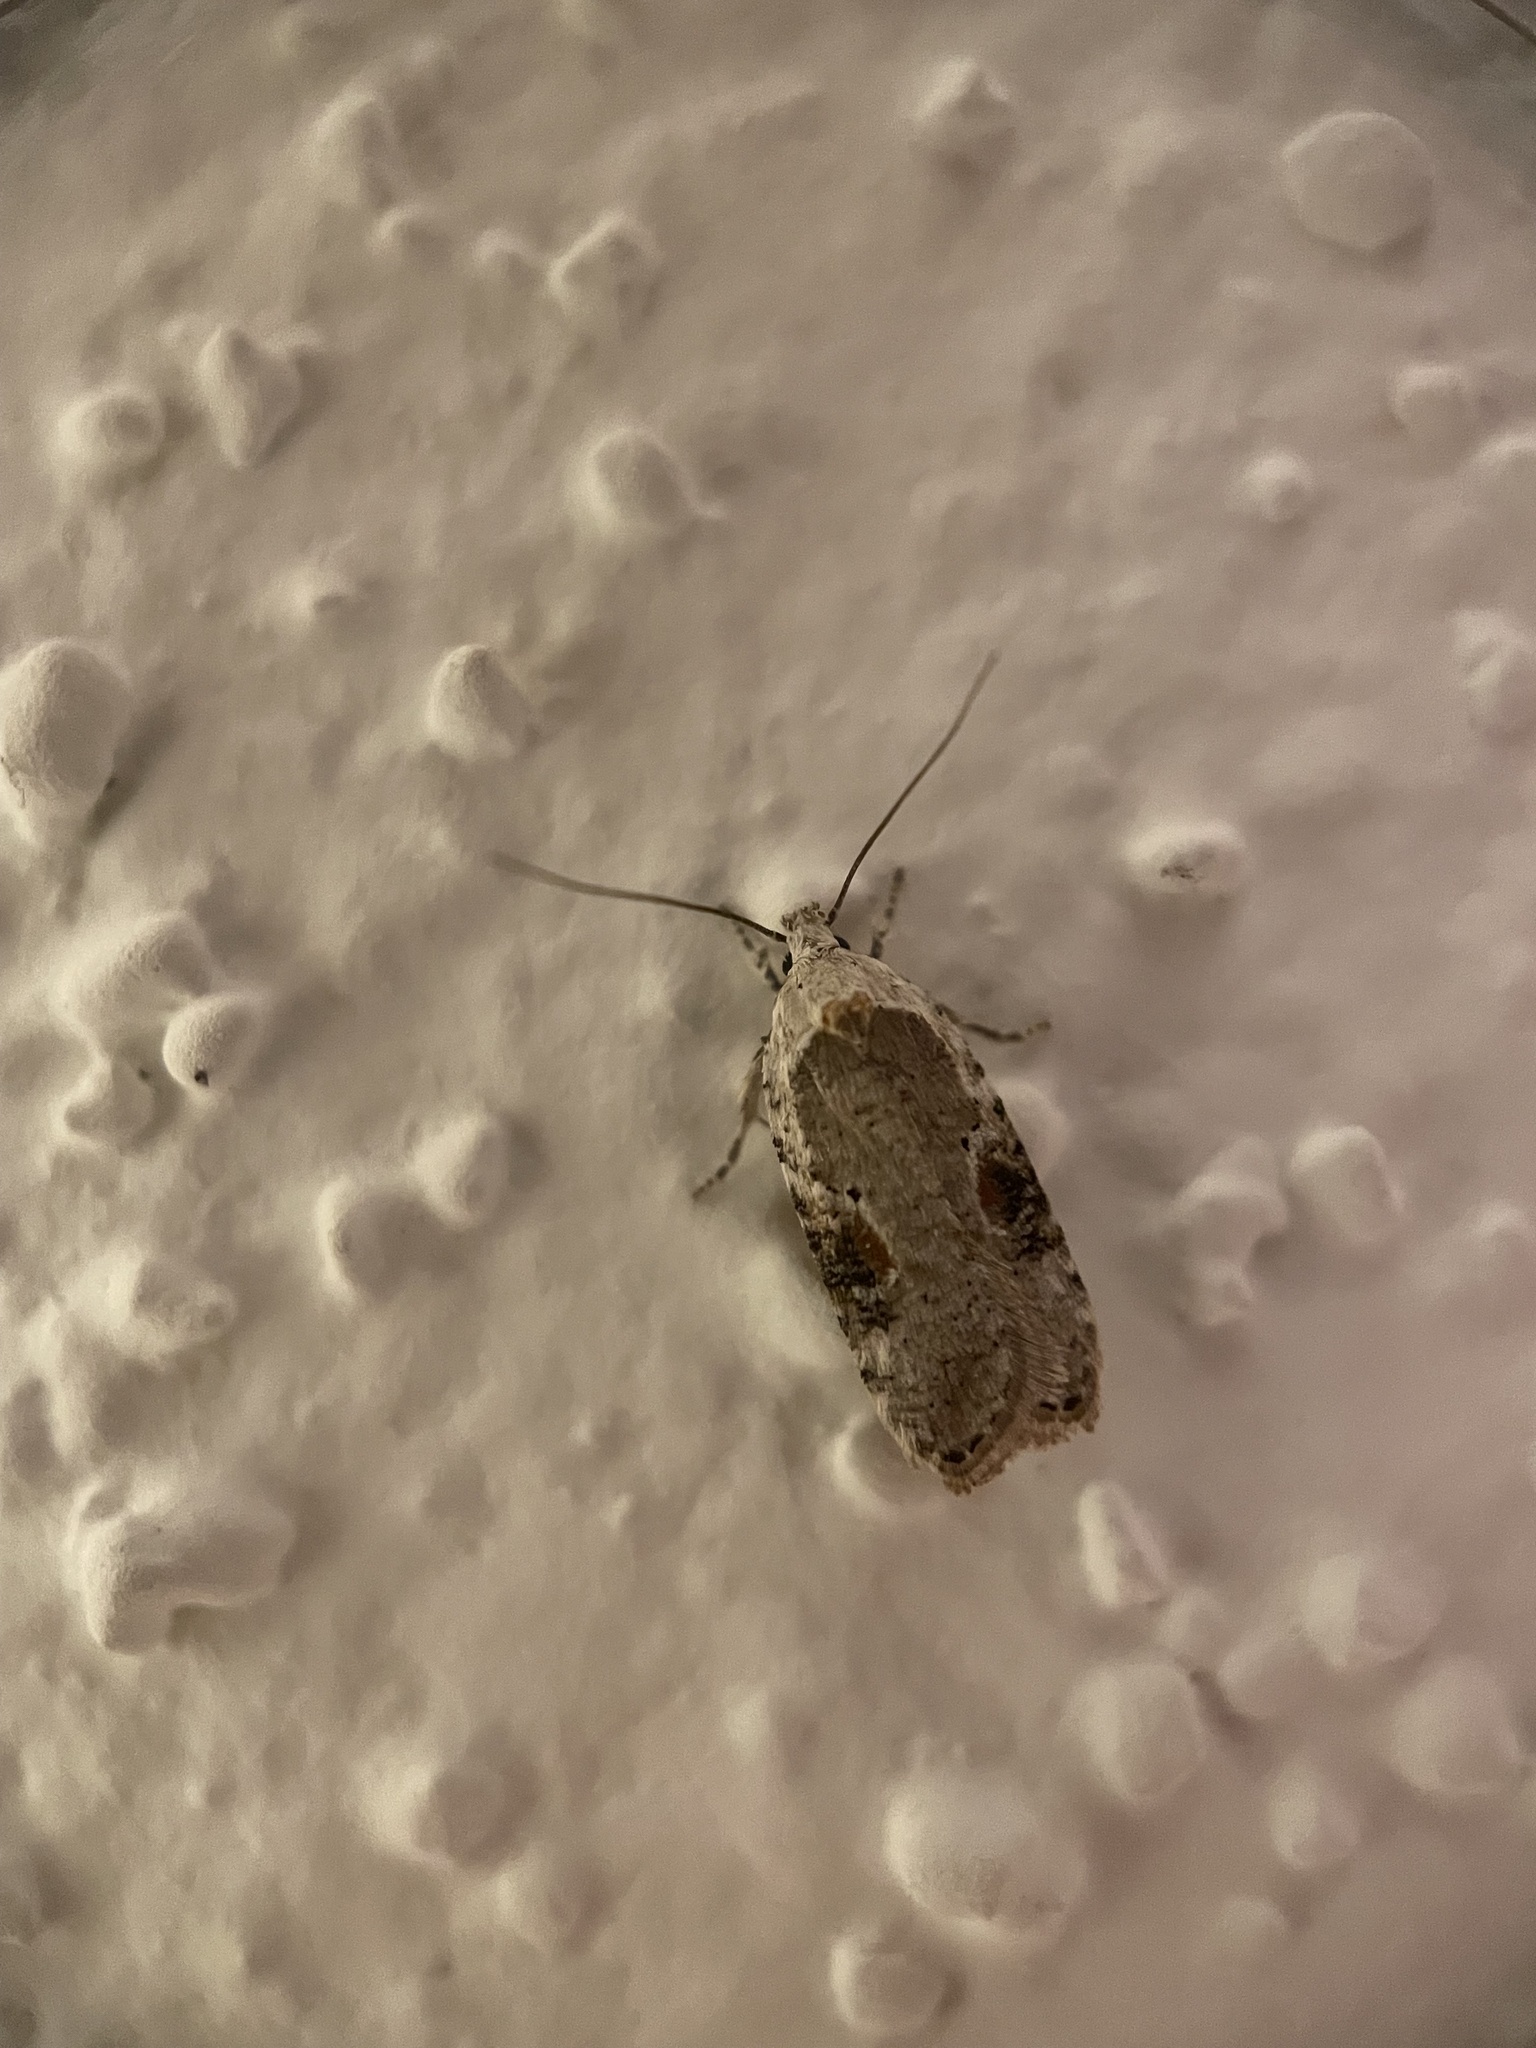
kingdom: Animalia
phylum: Arthropoda
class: Insecta
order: Lepidoptera
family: Depressariidae
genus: Agonopterix
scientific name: Agonopterix alstroemeriana
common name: Moth
